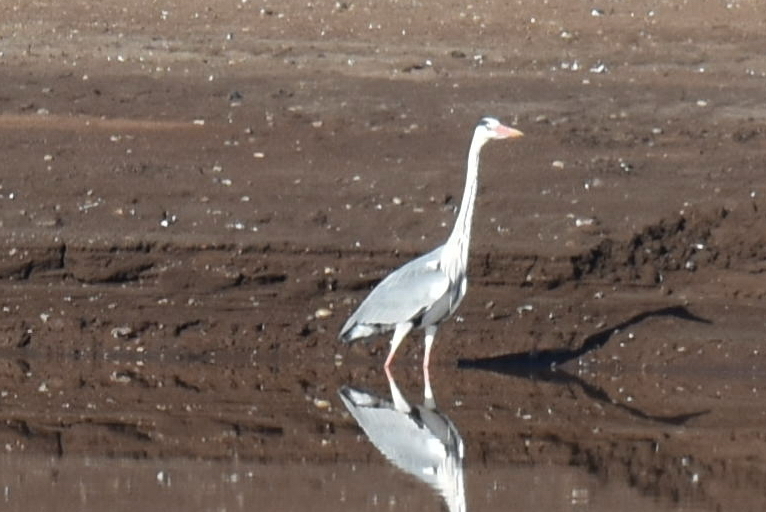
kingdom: Animalia
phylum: Chordata
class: Aves
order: Pelecaniformes
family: Ardeidae
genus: Ardea
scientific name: Ardea cinerea
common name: Grey heron
